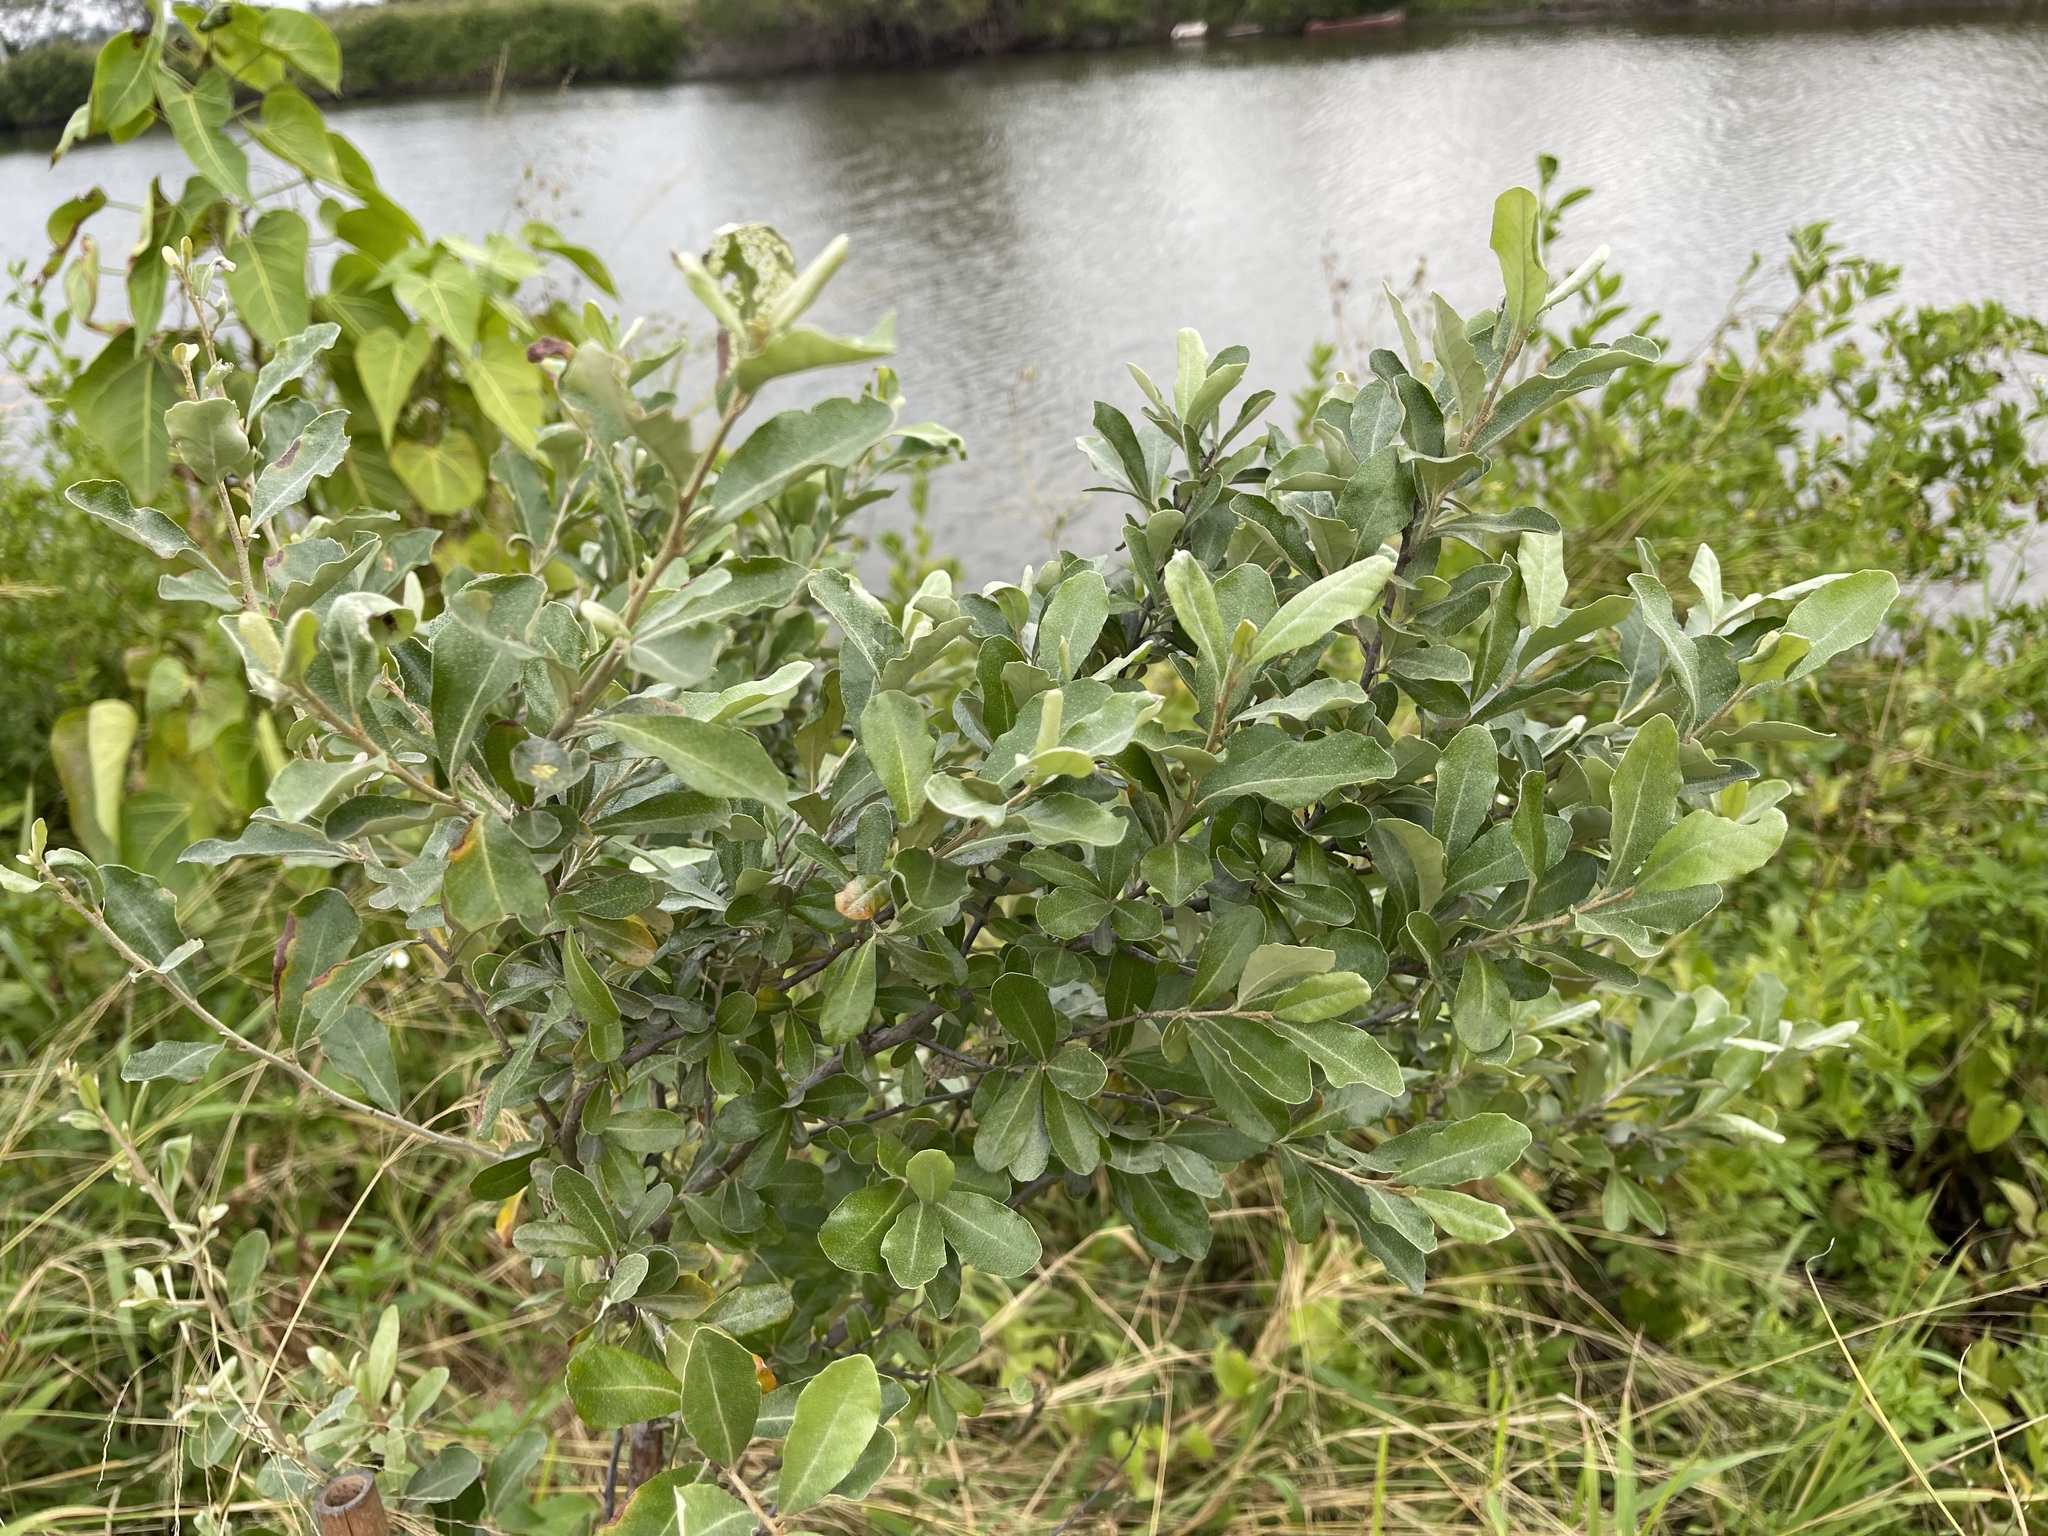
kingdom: Plantae
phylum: Tracheophyta
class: Magnoliopsida
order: Rosales
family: Elaeagnaceae
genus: Elaeagnus
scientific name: Elaeagnus oldhamii
